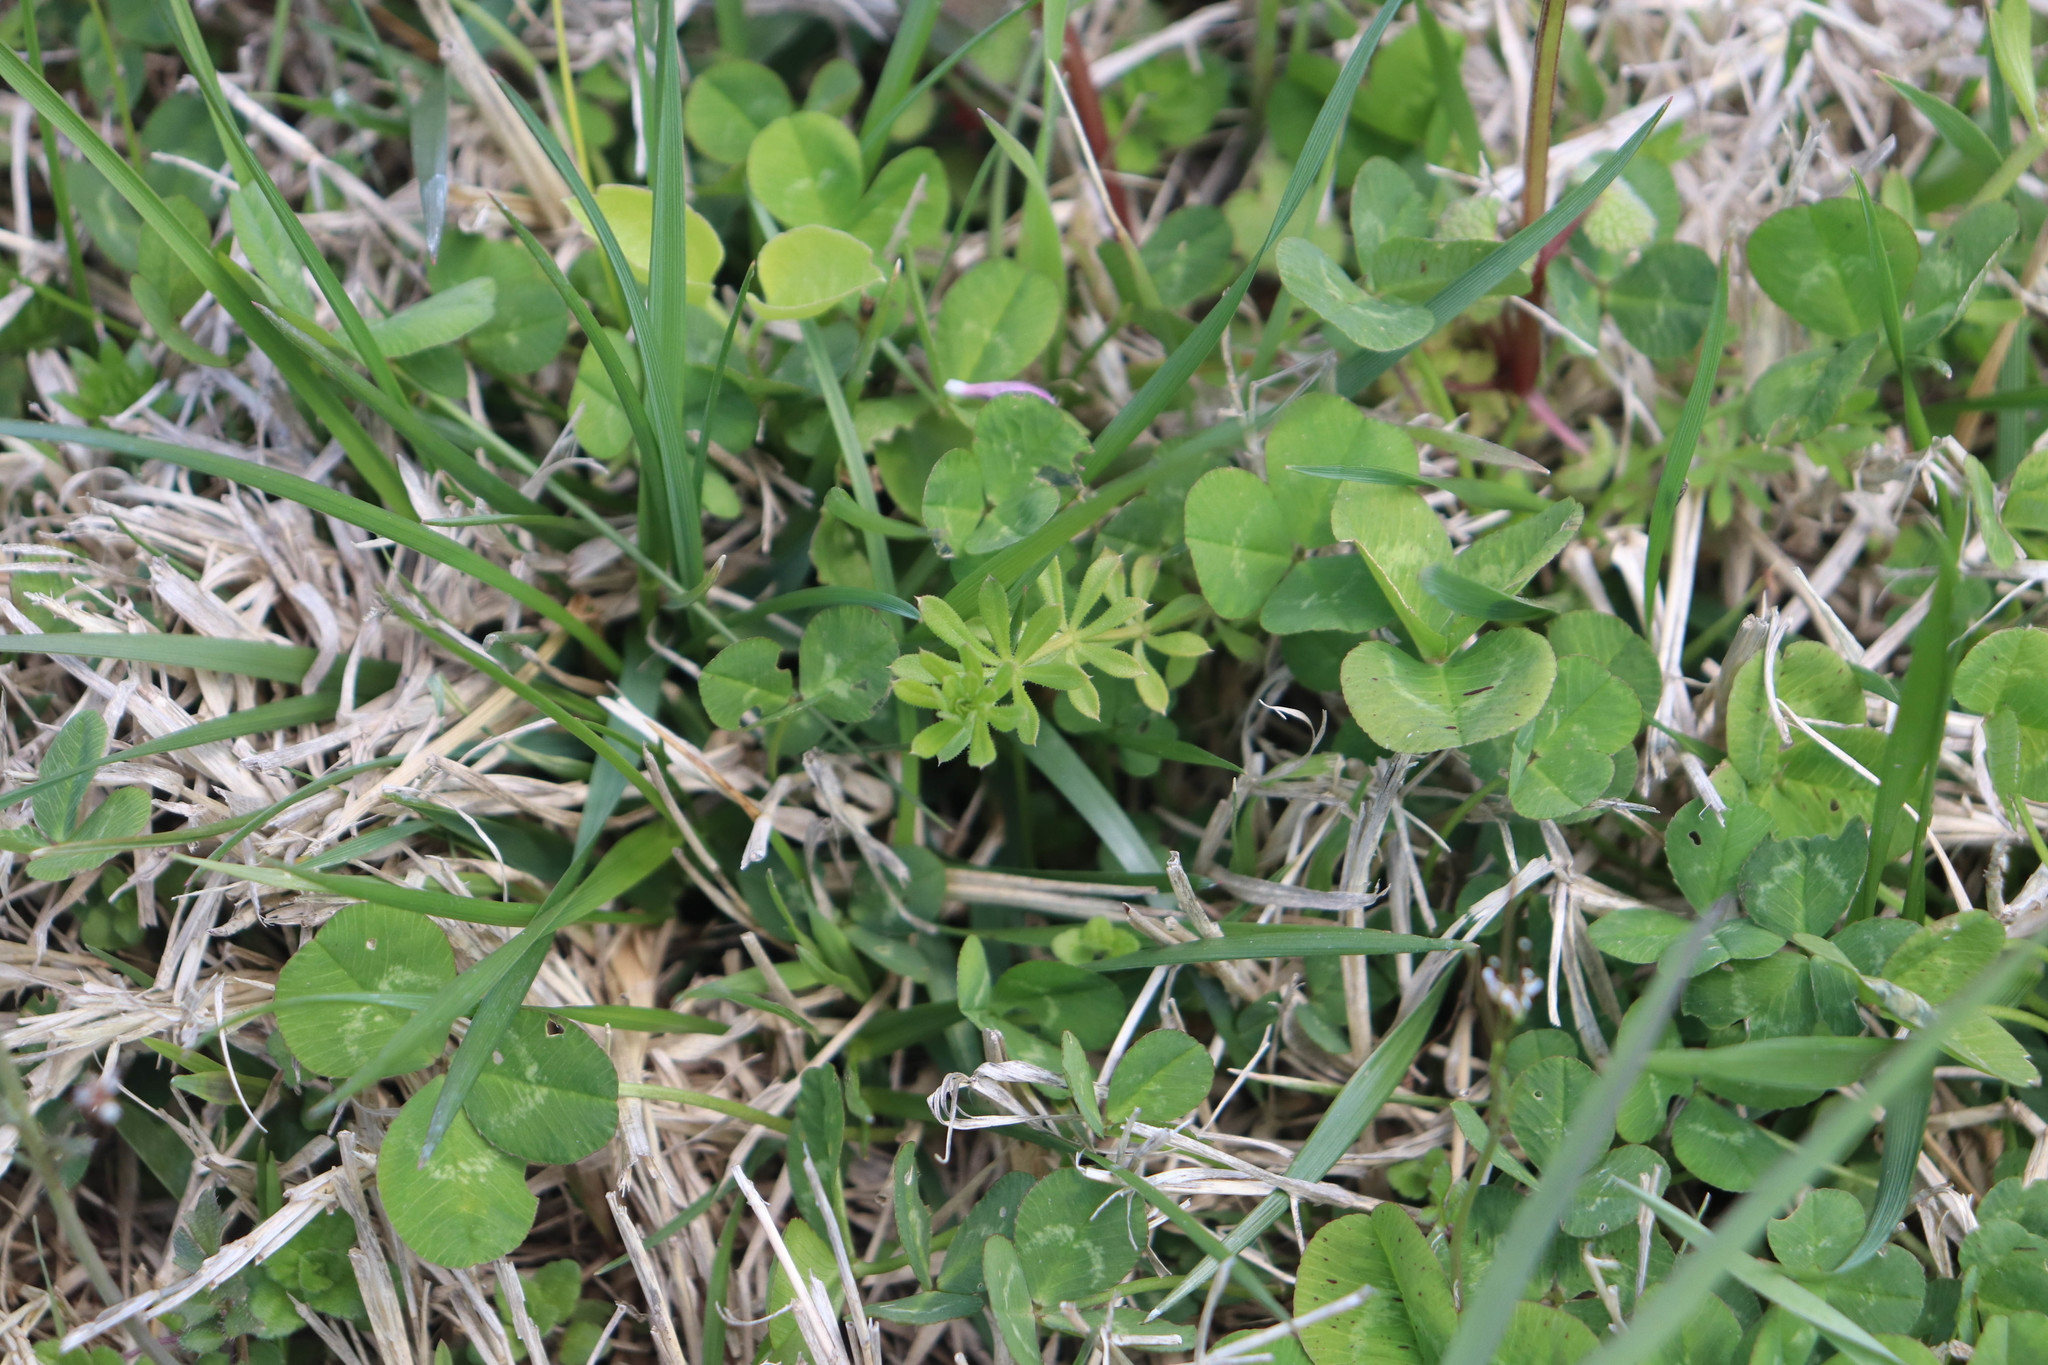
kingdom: Plantae
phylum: Tracheophyta
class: Magnoliopsida
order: Gentianales
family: Rubiaceae
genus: Galium
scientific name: Galium aparine
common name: Cleavers
